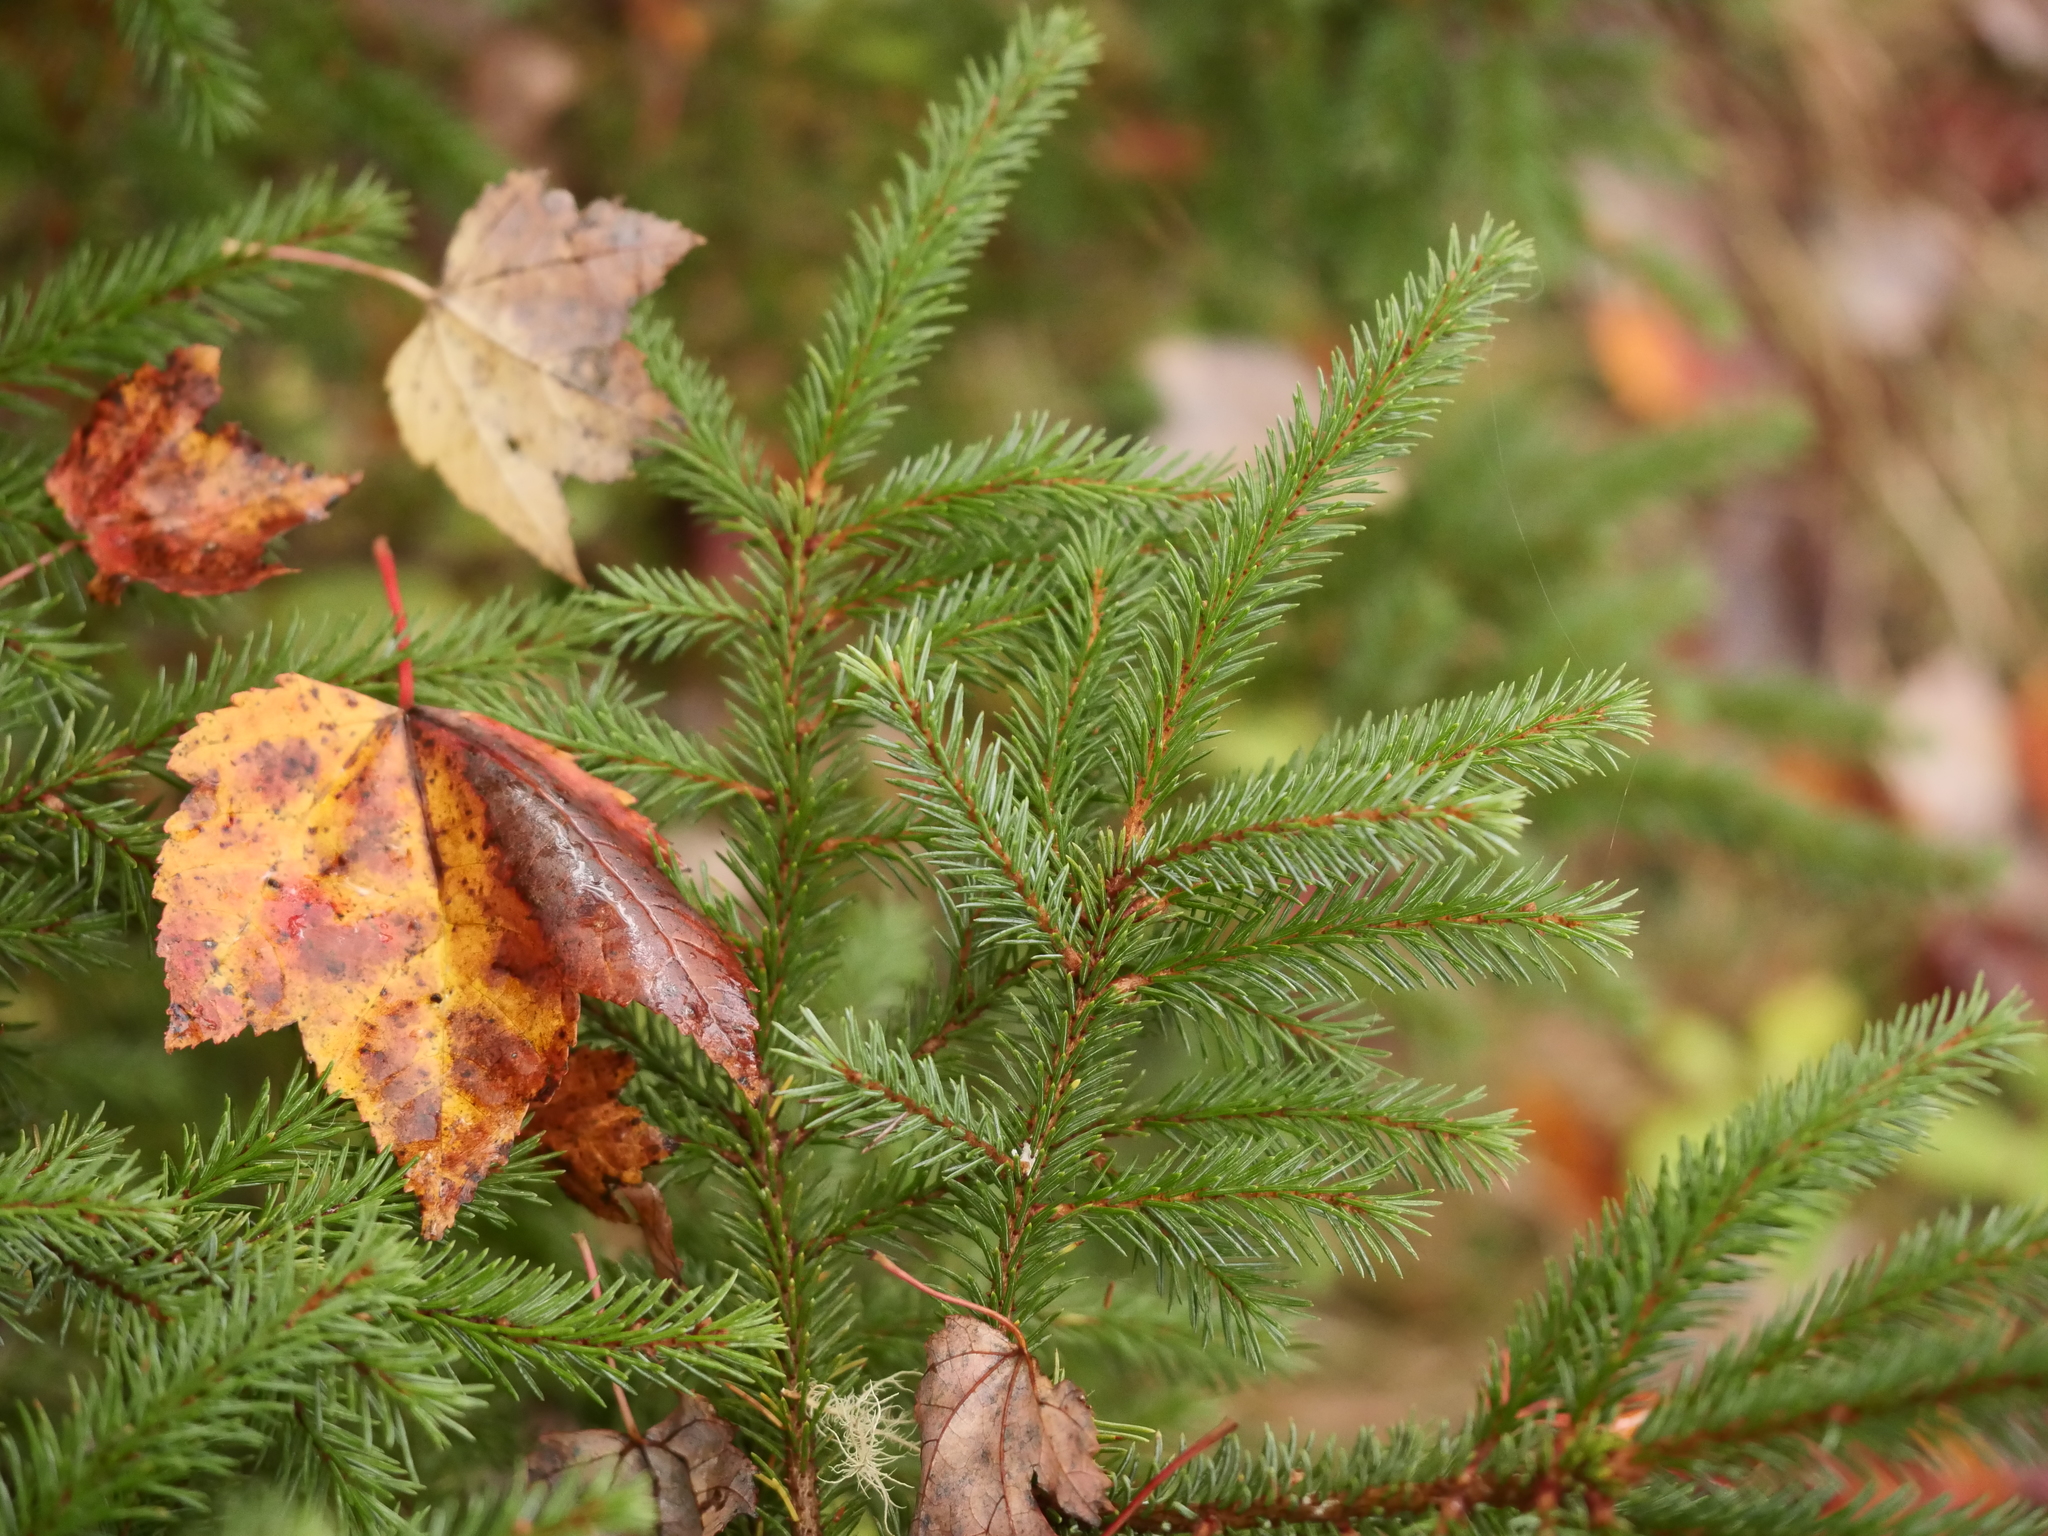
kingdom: Plantae
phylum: Tracheophyta
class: Pinopsida
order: Pinales
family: Pinaceae
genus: Picea
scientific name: Picea rubens
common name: Red spruce
